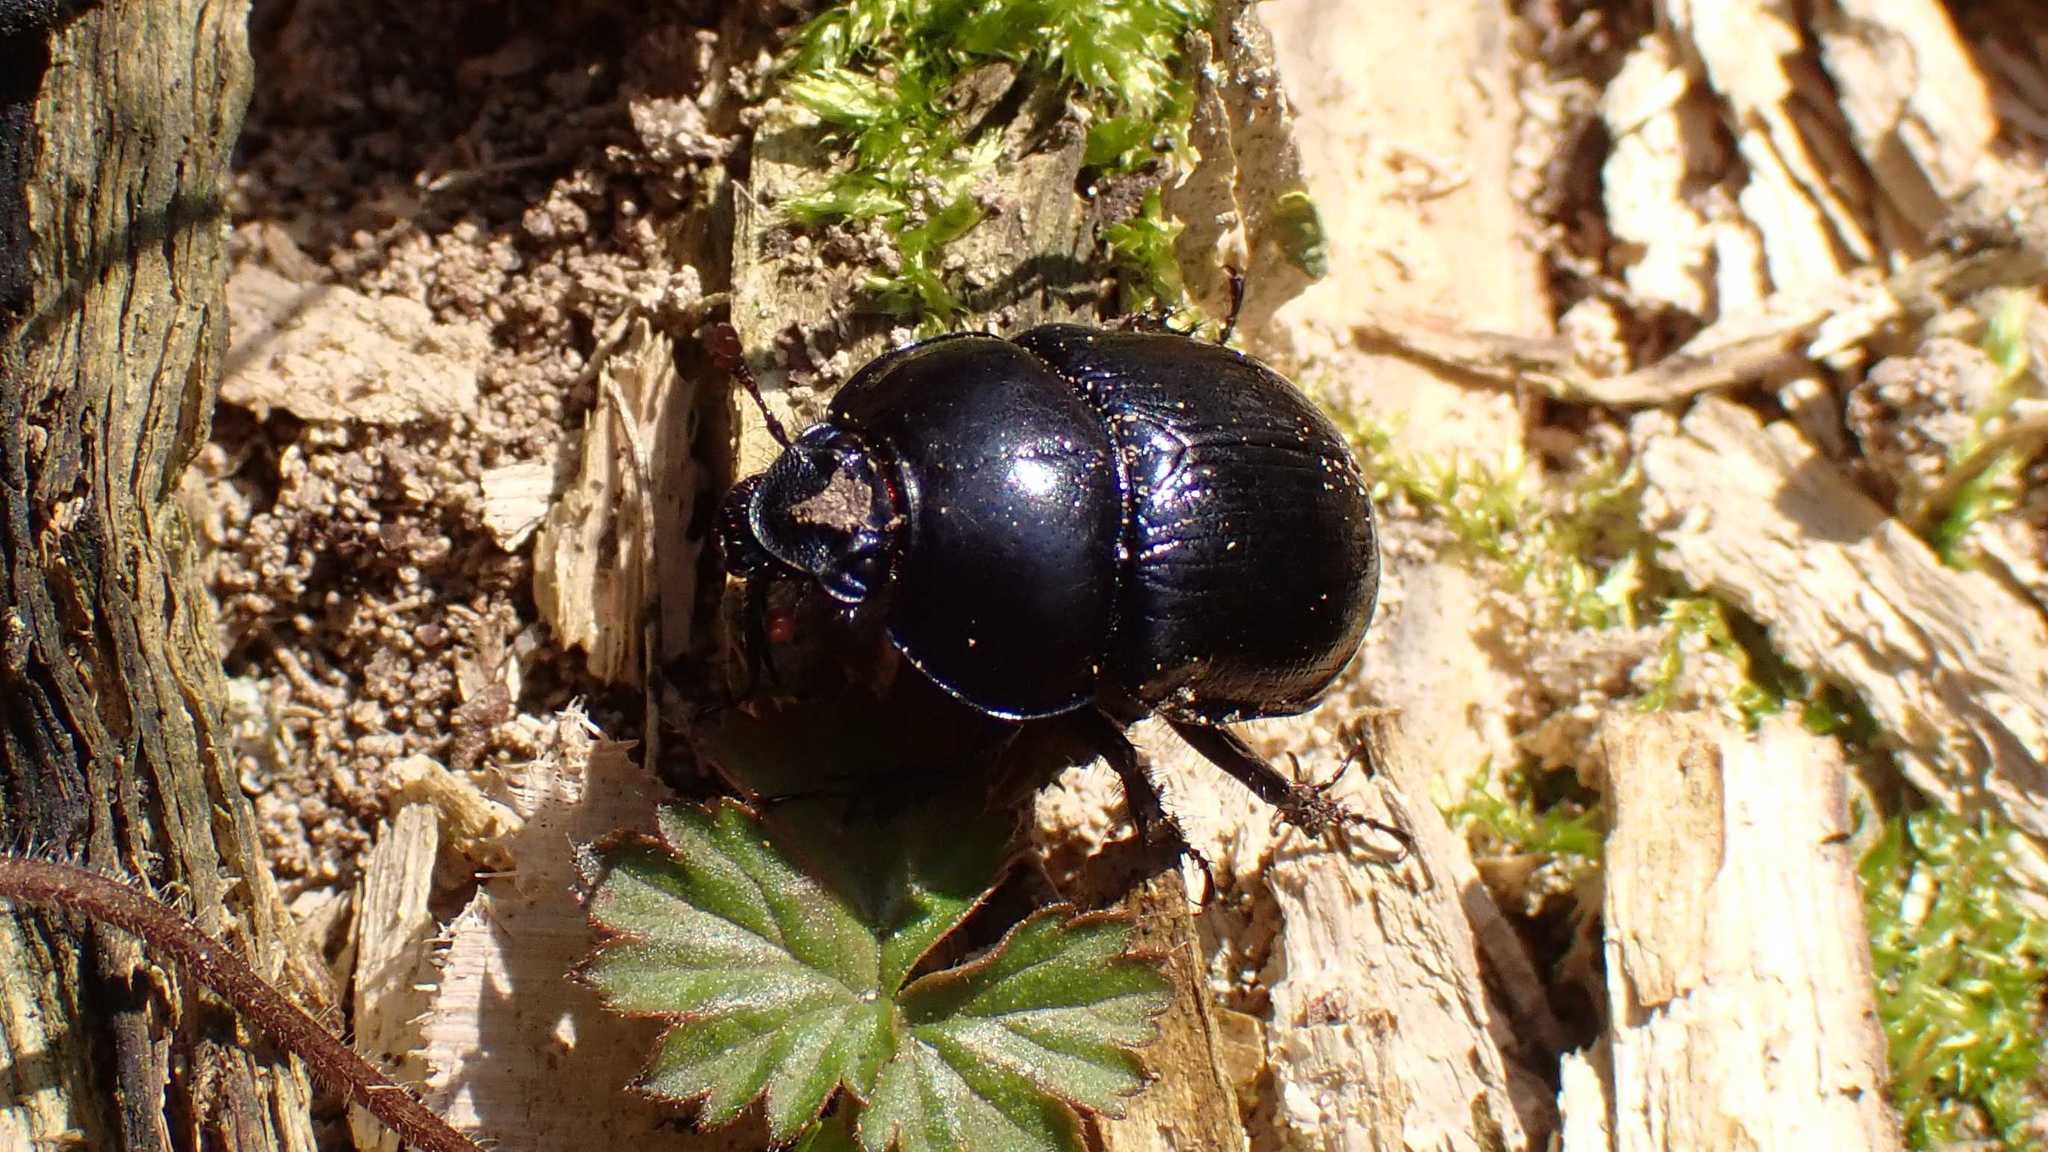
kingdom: Animalia
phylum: Arthropoda
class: Insecta
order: Coleoptera
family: Geotrupidae
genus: Anoplotrupes
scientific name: Anoplotrupes stercorosus
